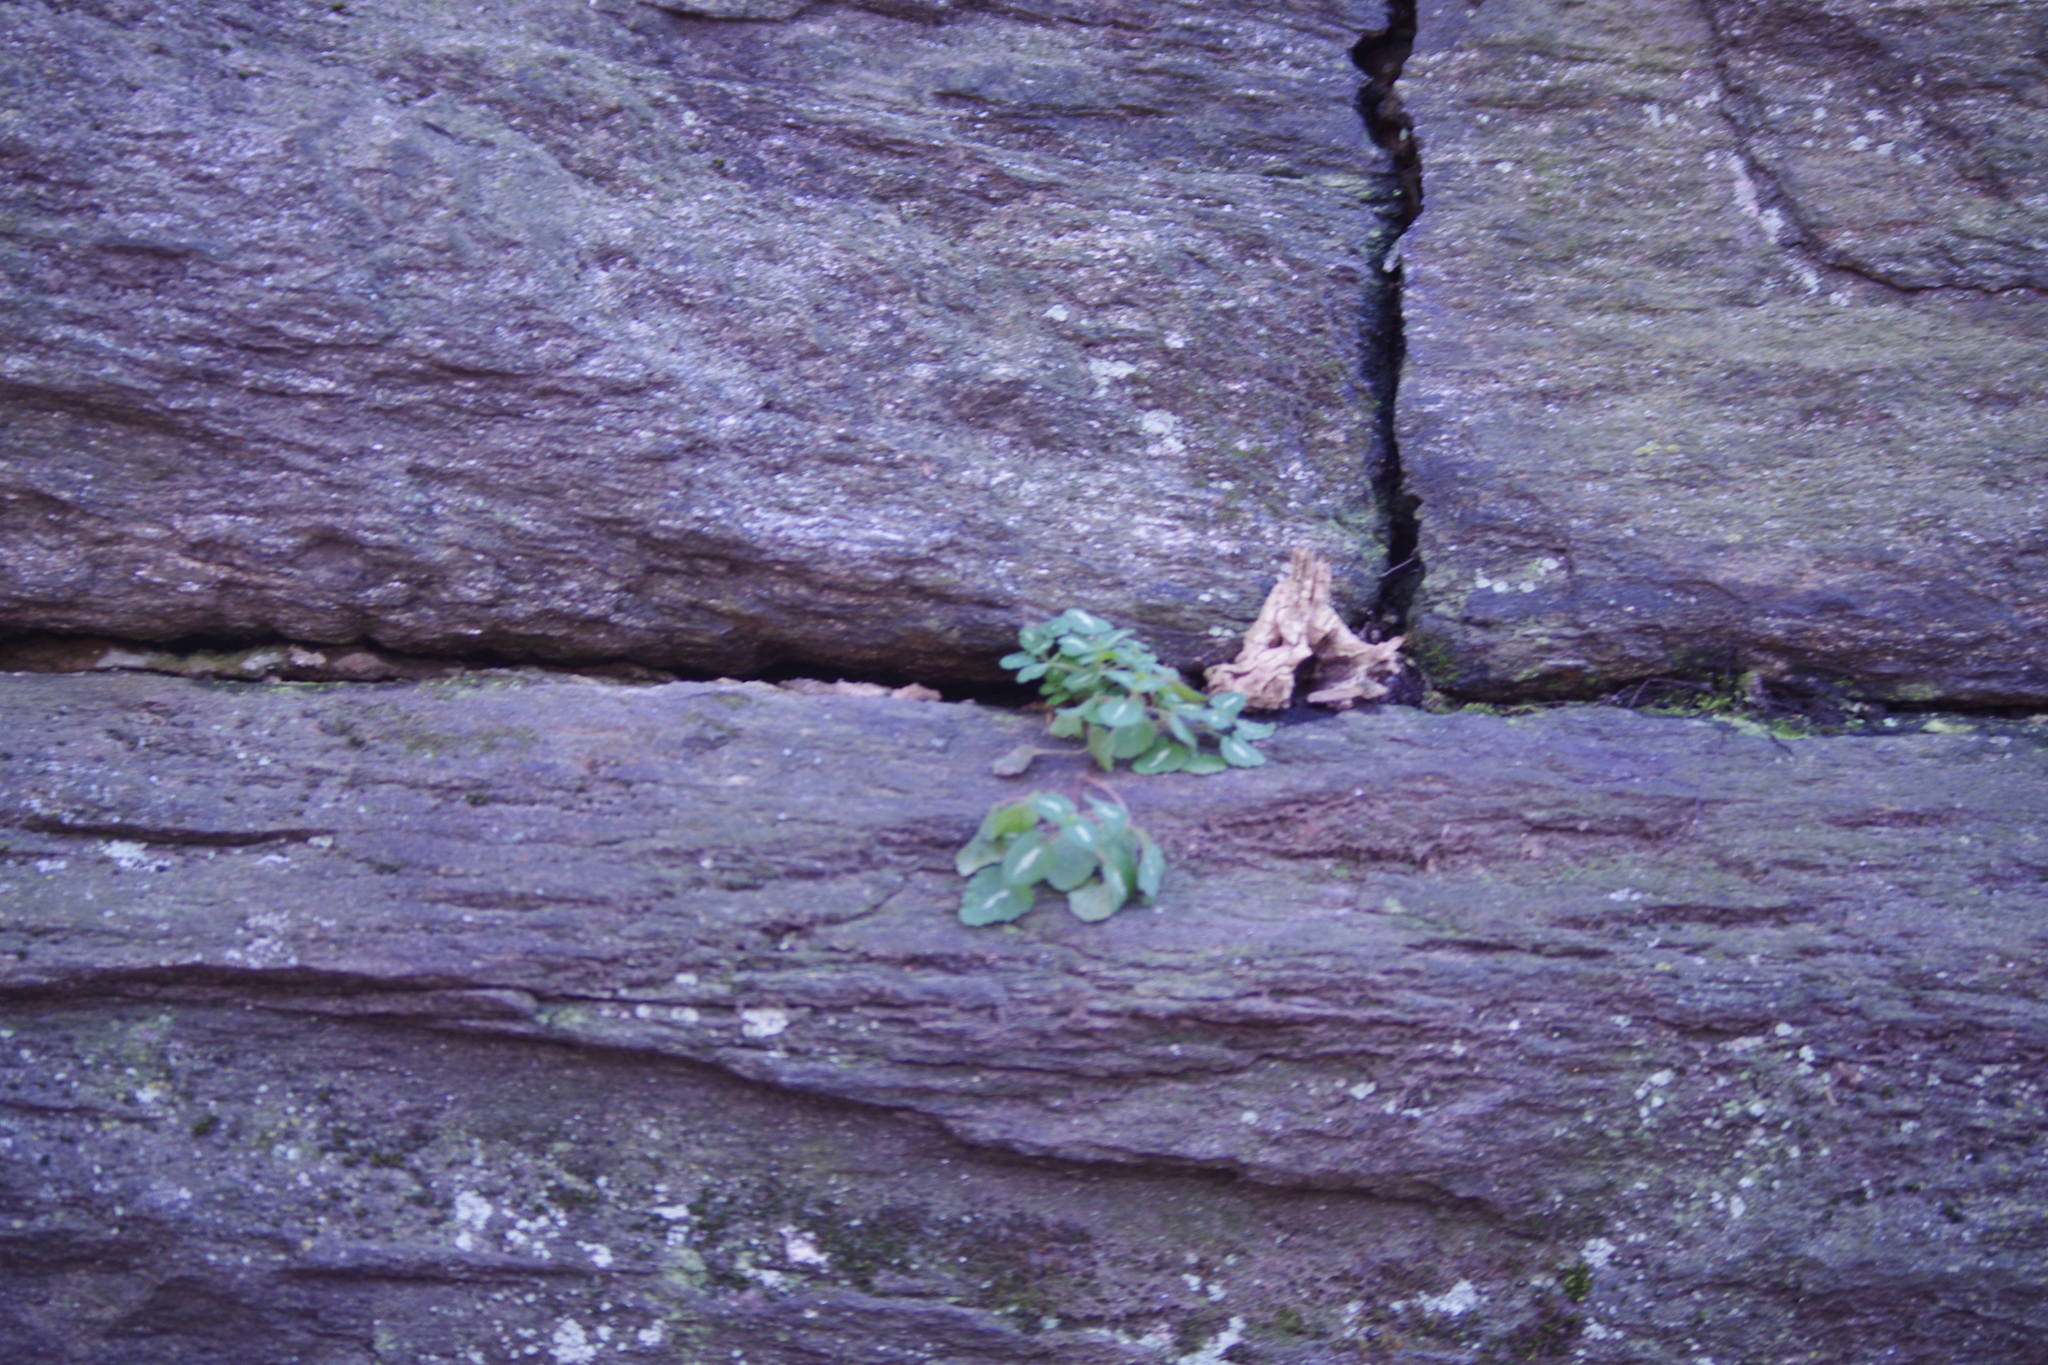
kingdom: Plantae
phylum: Tracheophyta
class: Magnoliopsida
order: Lamiales
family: Lamiaceae
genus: Lamium
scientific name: Lamium maculatum
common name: Spotted dead-nettle
